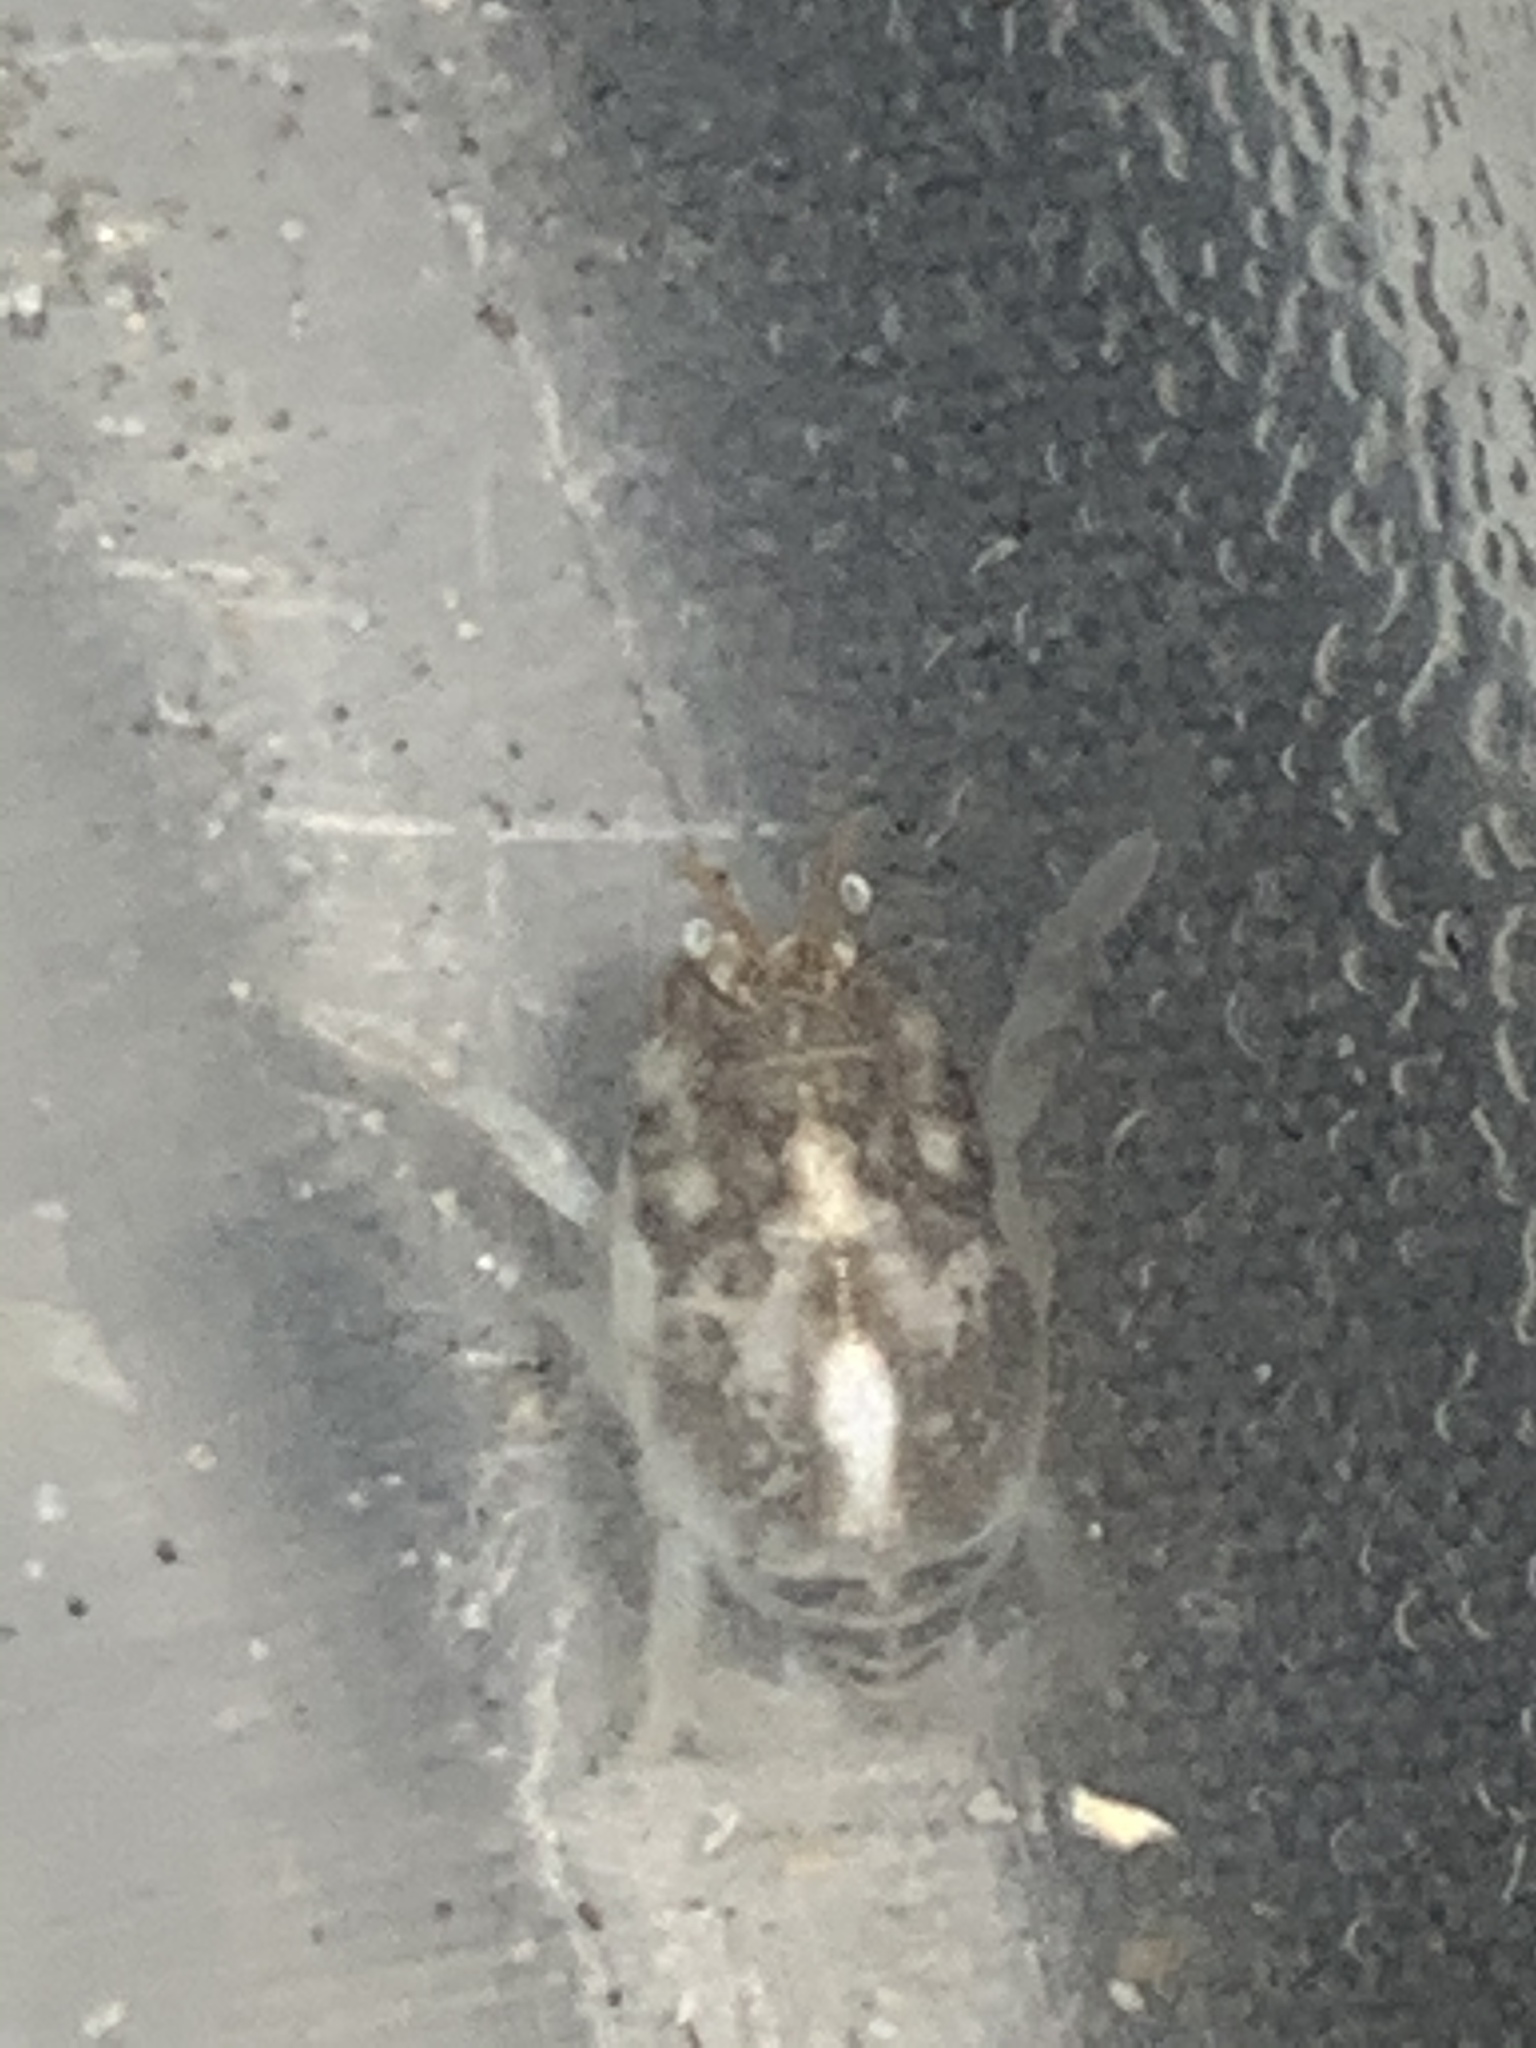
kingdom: Animalia
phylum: Arthropoda
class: Malacostraca
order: Decapoda
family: Hippidae
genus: Emerita
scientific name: Emerita analoga
